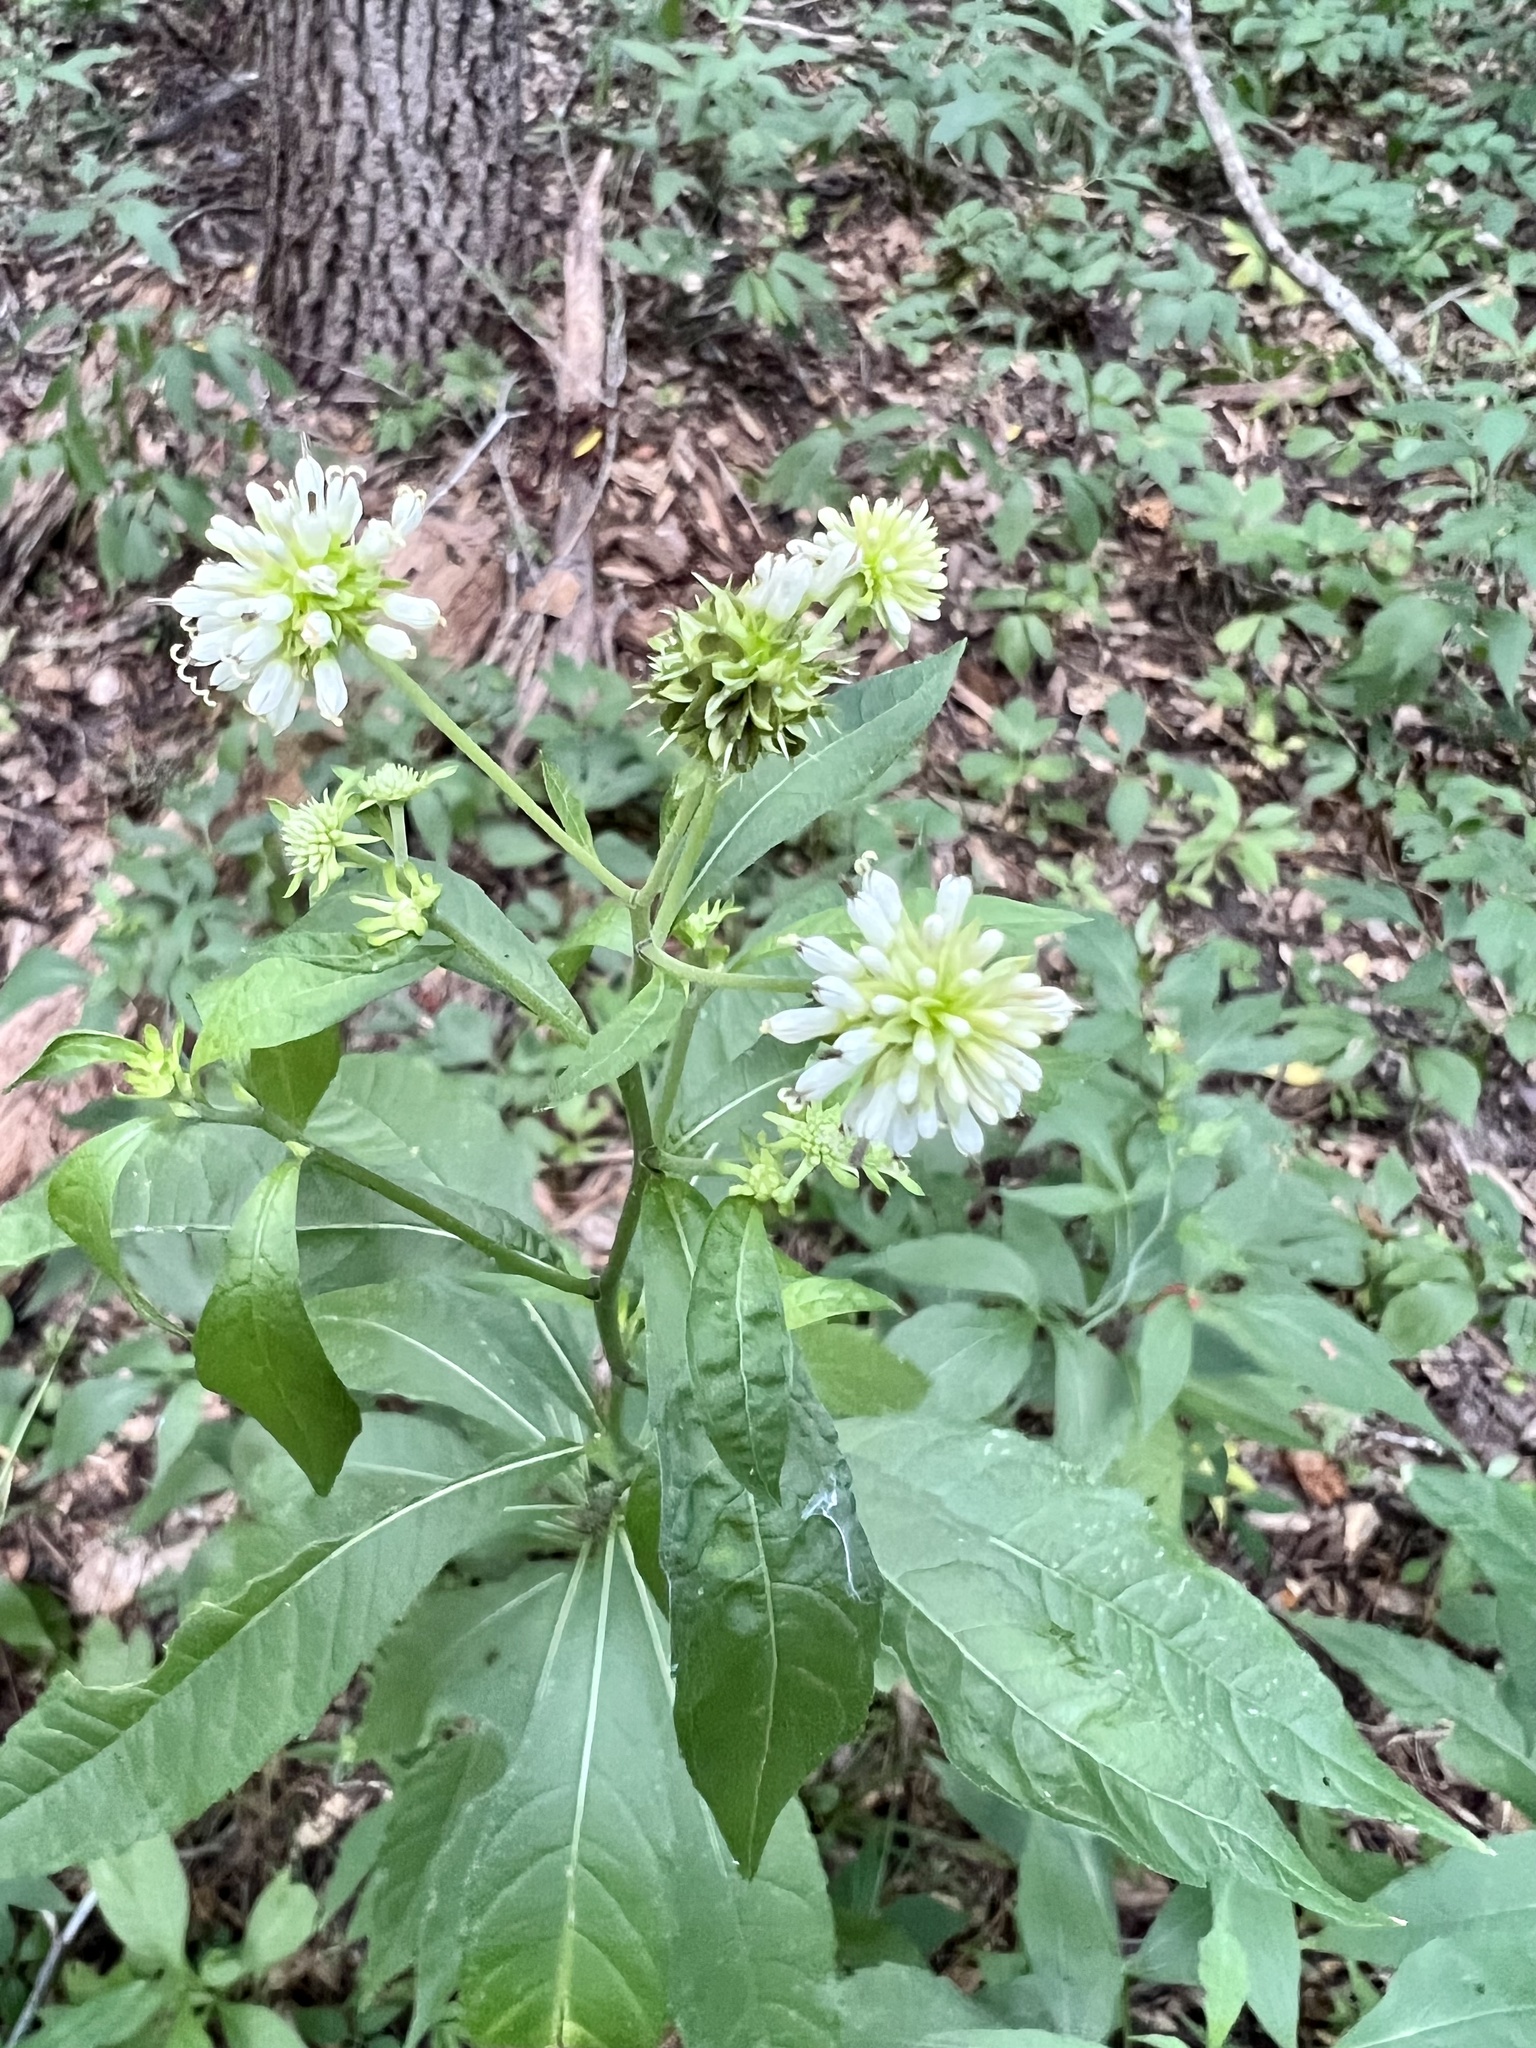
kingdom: Plantae
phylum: Tracheophyta
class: Magnoliopsida
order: Asterales
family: Asteraceae
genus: Verbesina
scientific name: Verbesina walteri
